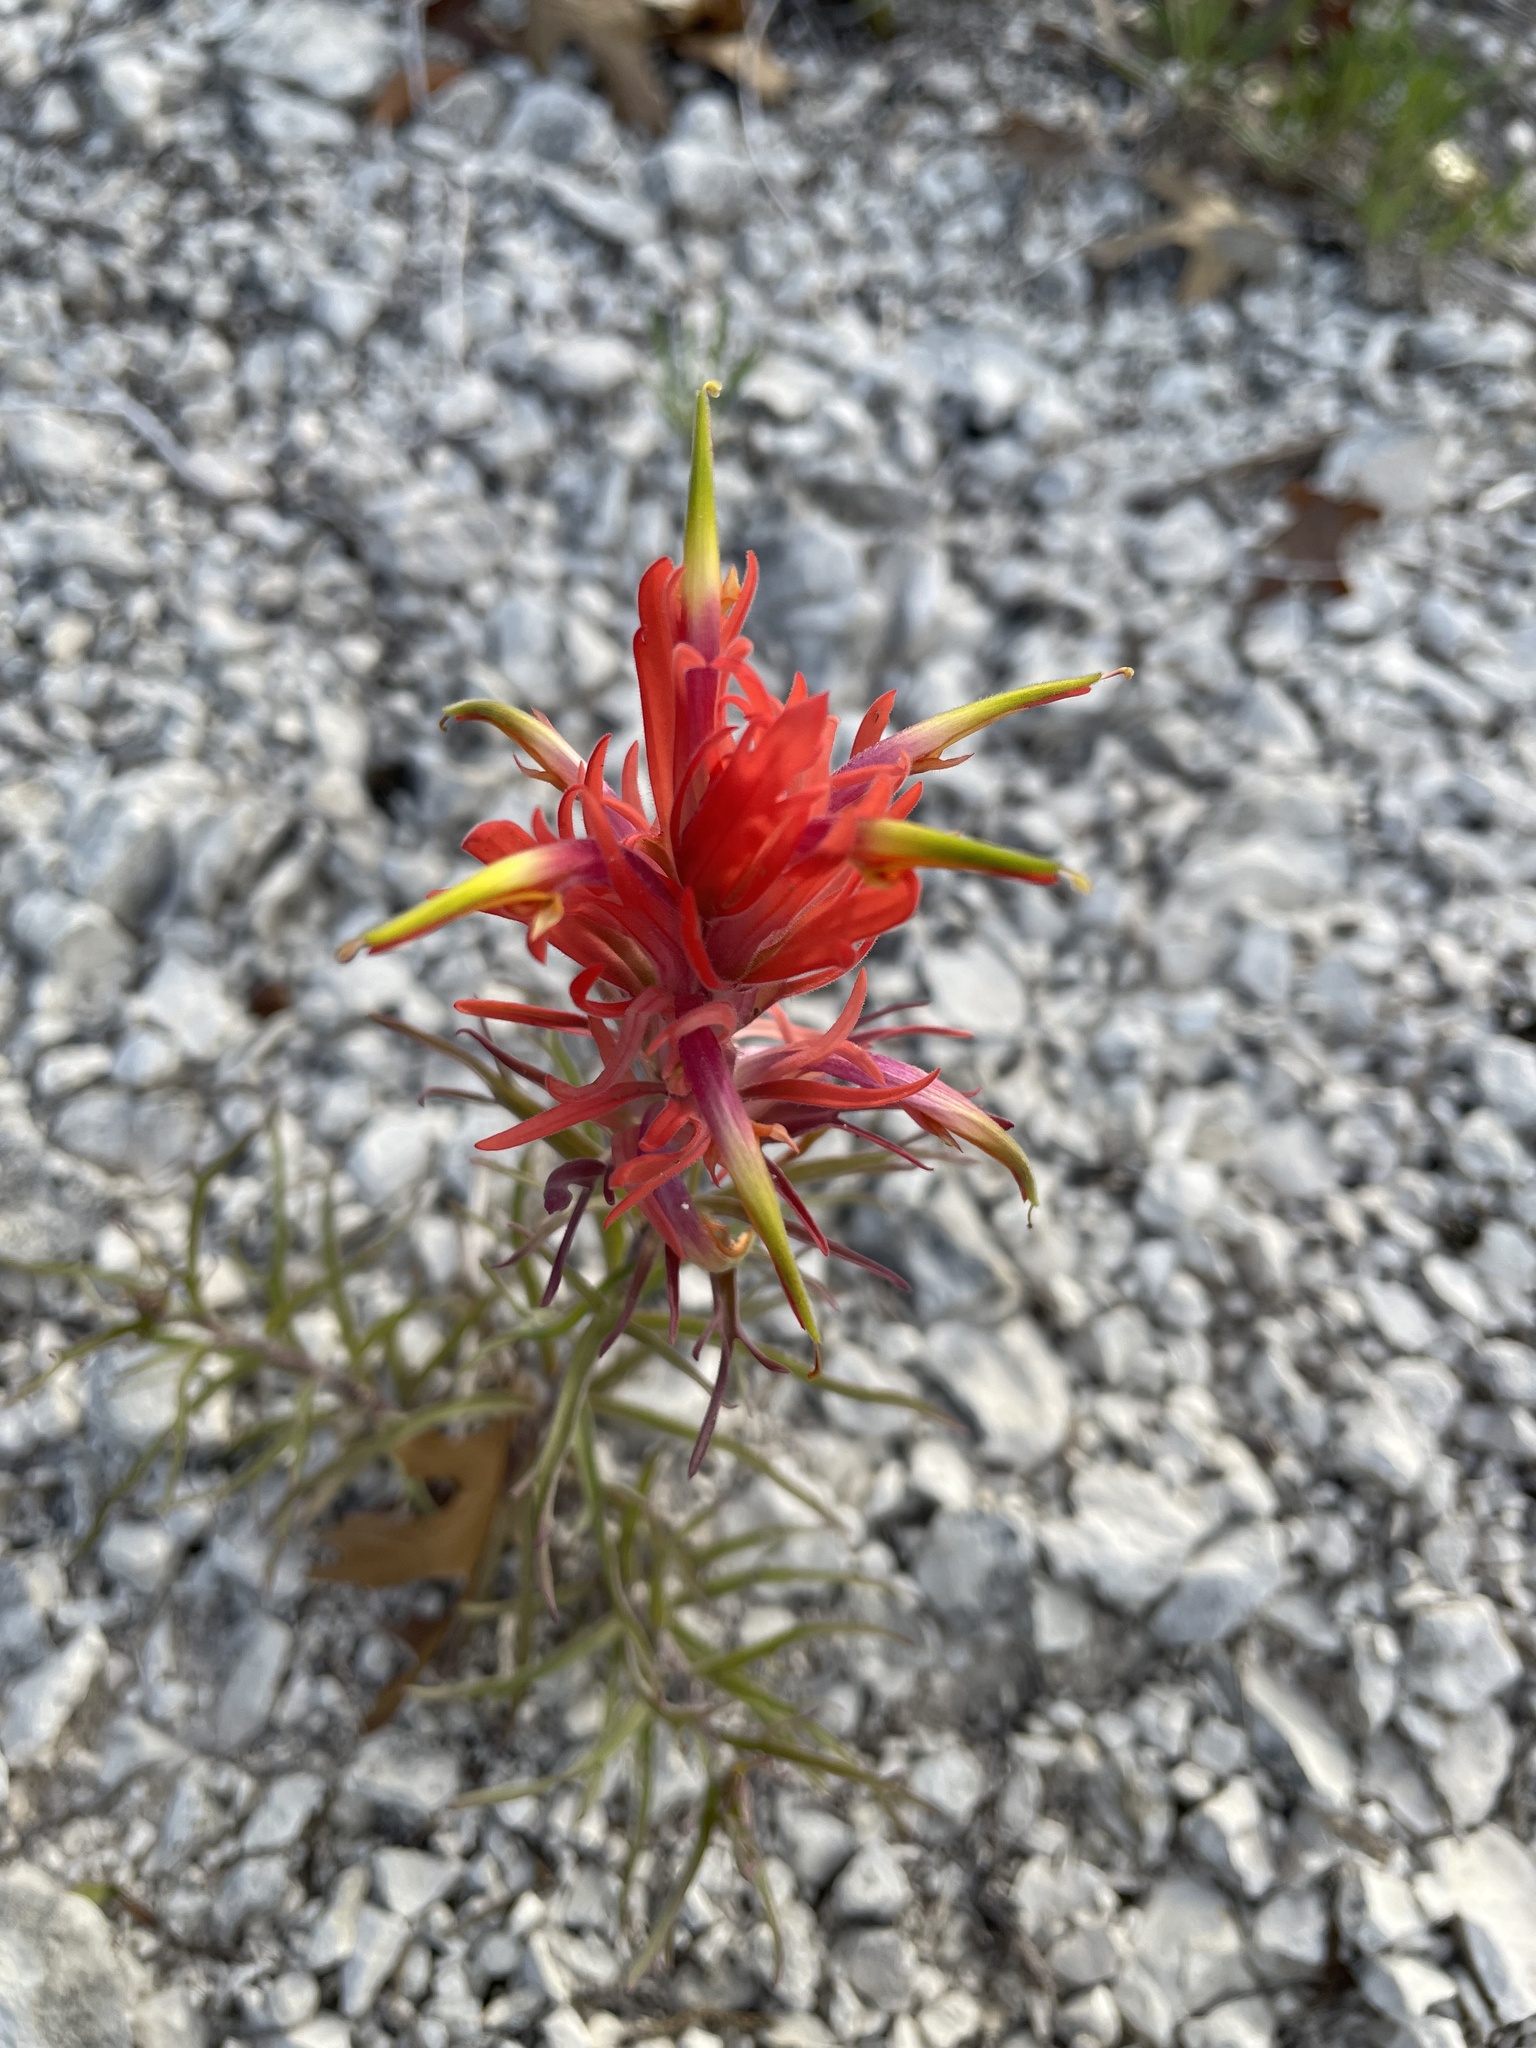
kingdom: Plantae
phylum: Tracheophyta
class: Magnoliopsida
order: Lamiales
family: Orobanchaceae
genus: Castilleja
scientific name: Castilleja lindheimeri
